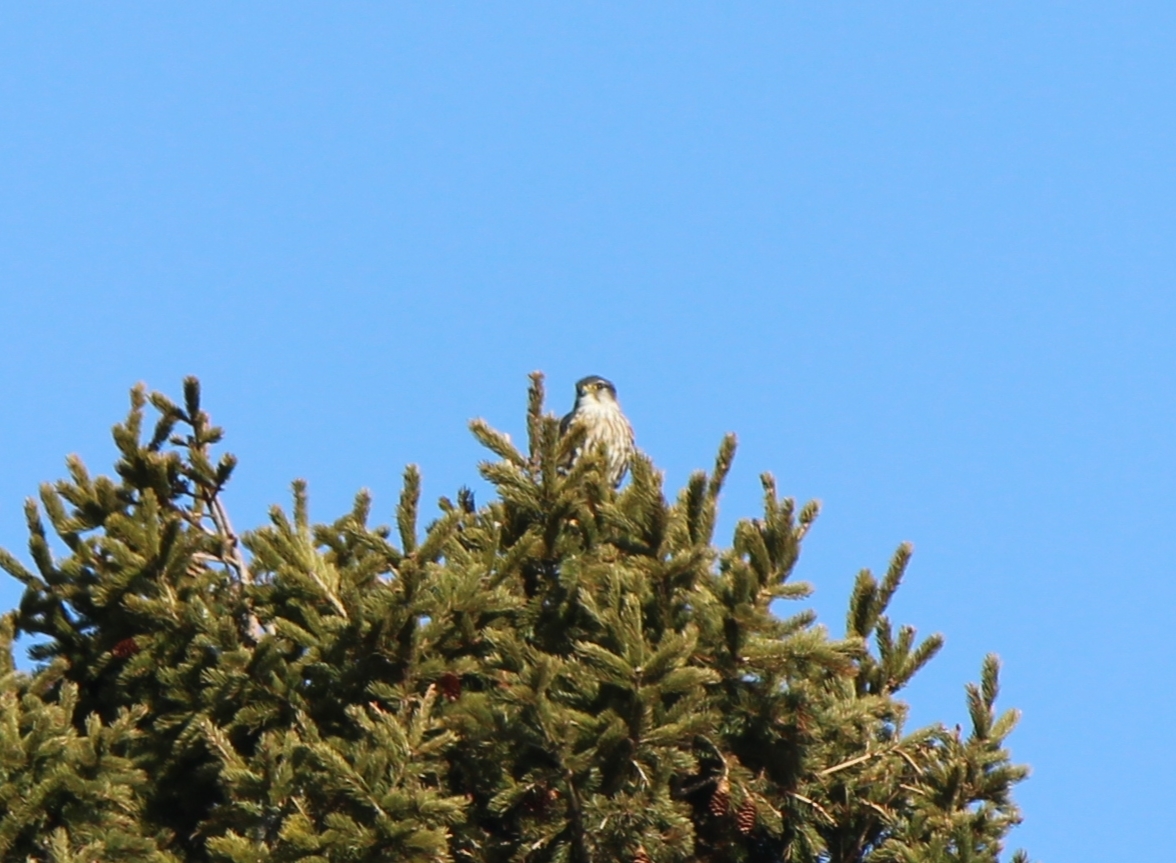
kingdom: Animalia
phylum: Chordata
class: Aves
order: Falconiformes
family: Falconidae
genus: Falco
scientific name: Falco columbarius
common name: Merlin
